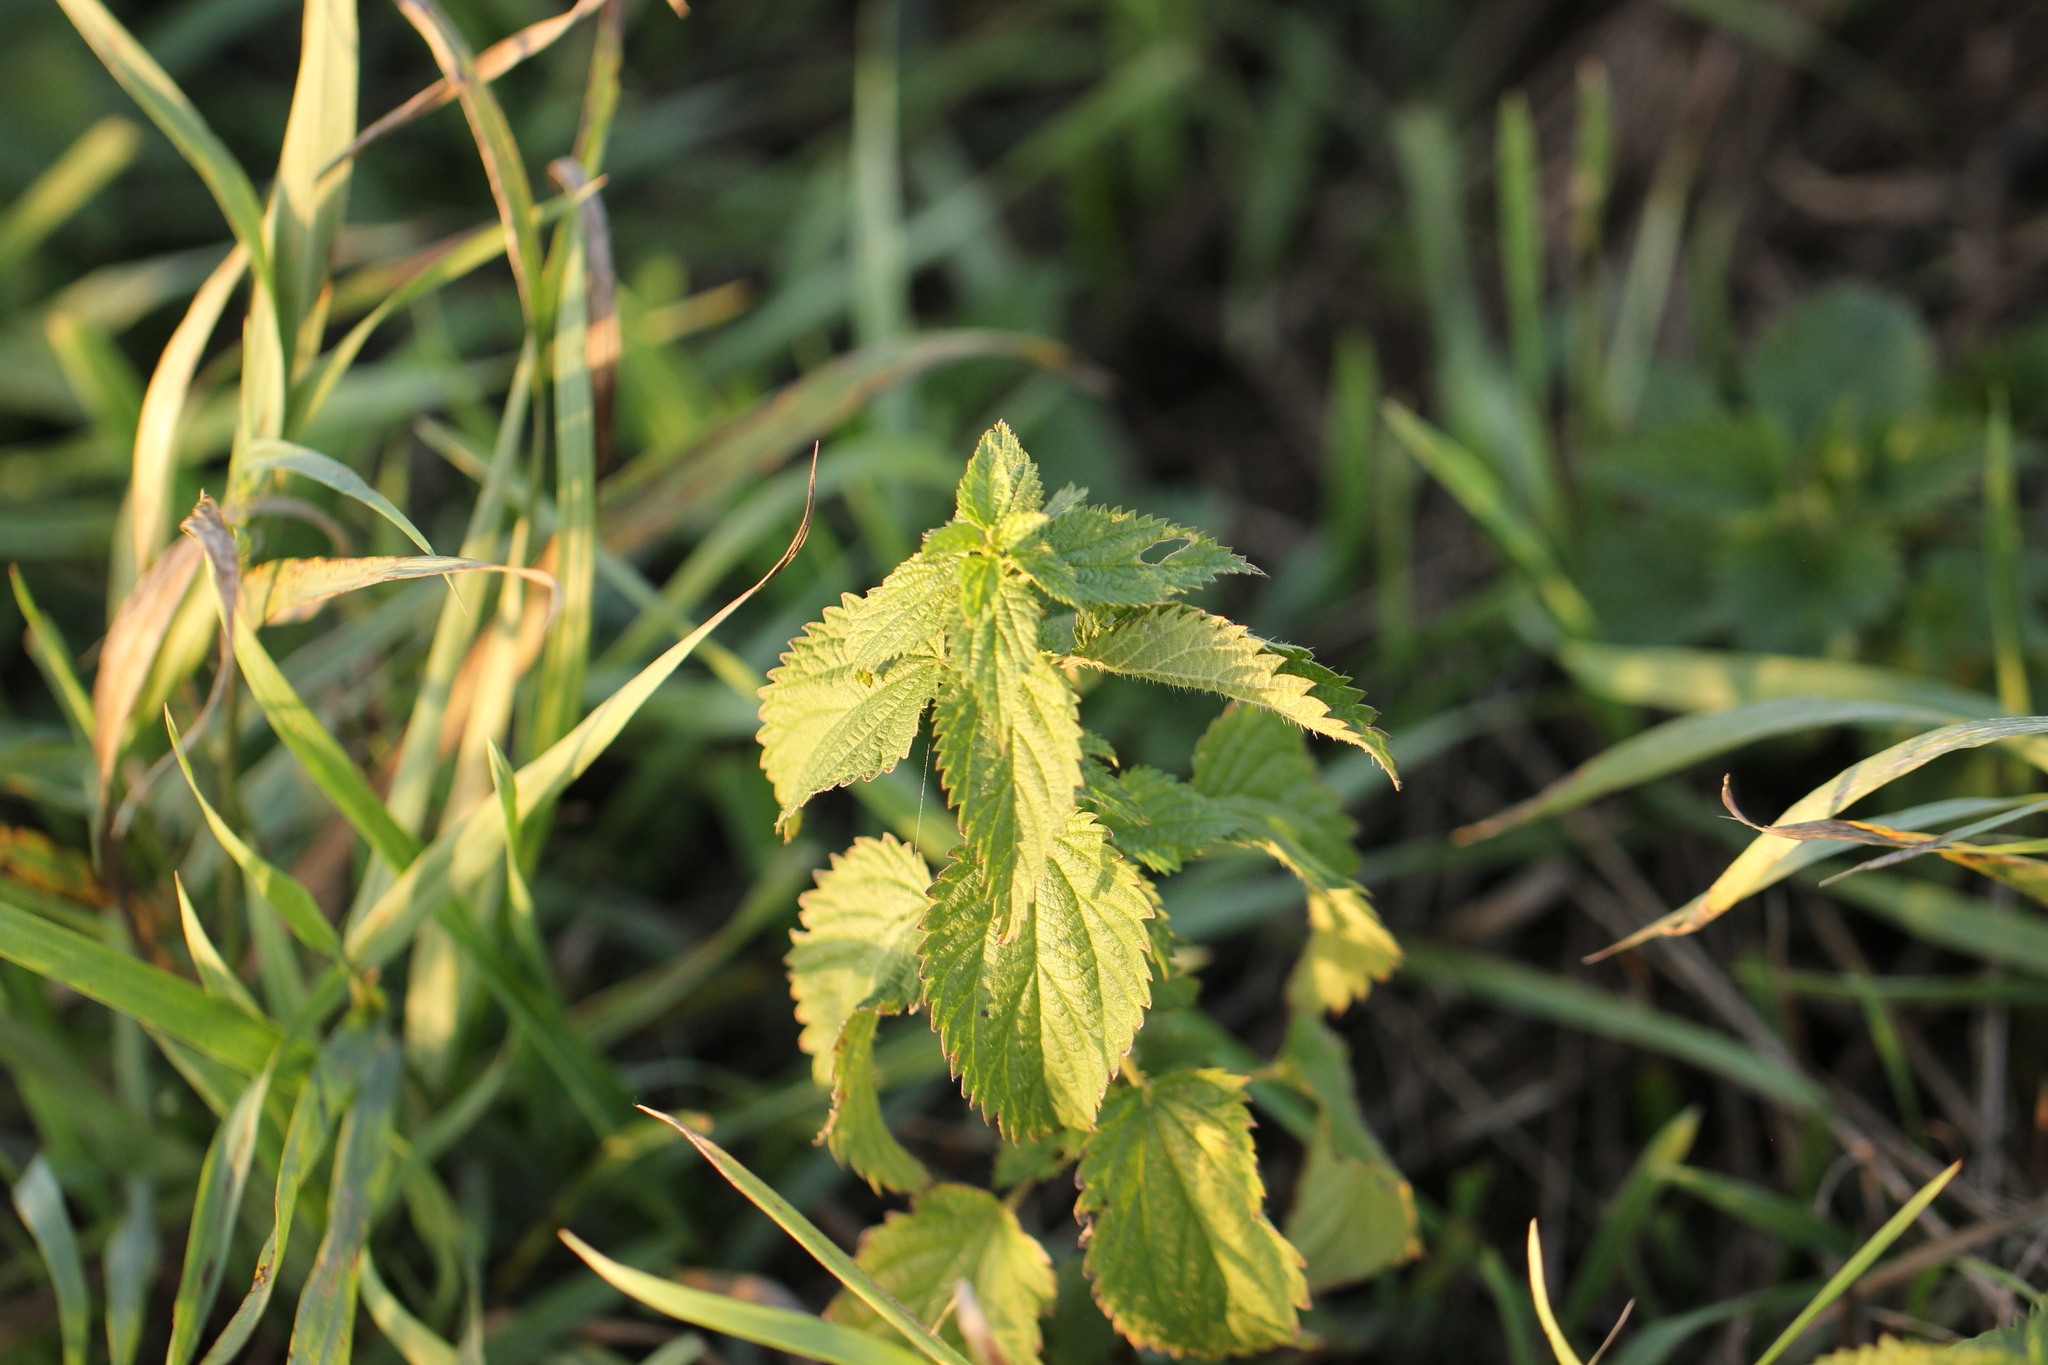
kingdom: Plantae
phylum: Tracheophyta
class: Magnoliopsida
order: Rosales
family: Urticaceae
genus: Urtica
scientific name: Urtica dioica
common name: Common nettle
